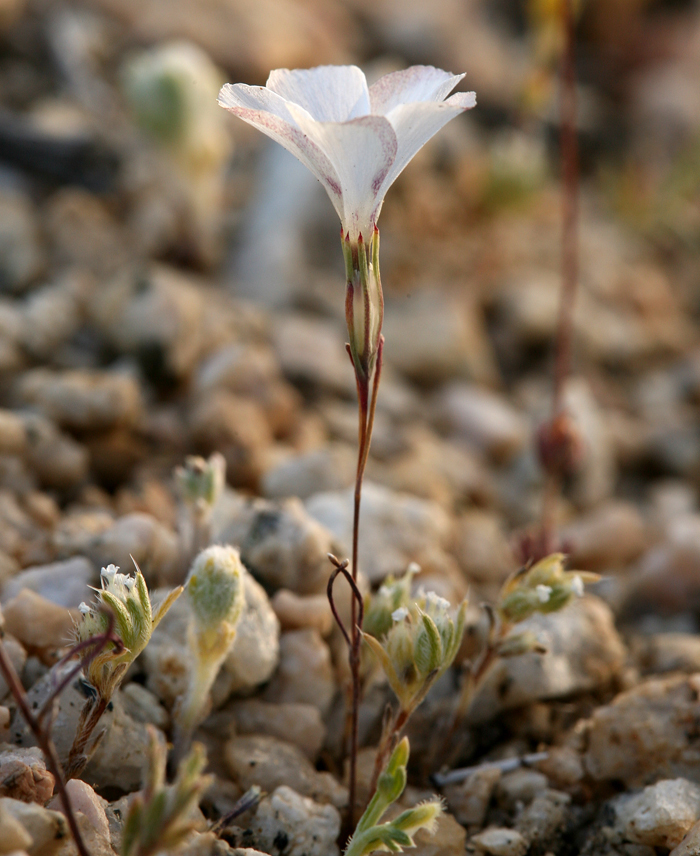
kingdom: Plantae
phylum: Tracheophyta
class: Magnoliopsida
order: Ericales
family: Polemoniaceae
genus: Linanthus
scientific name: Linanthus dichotomus
